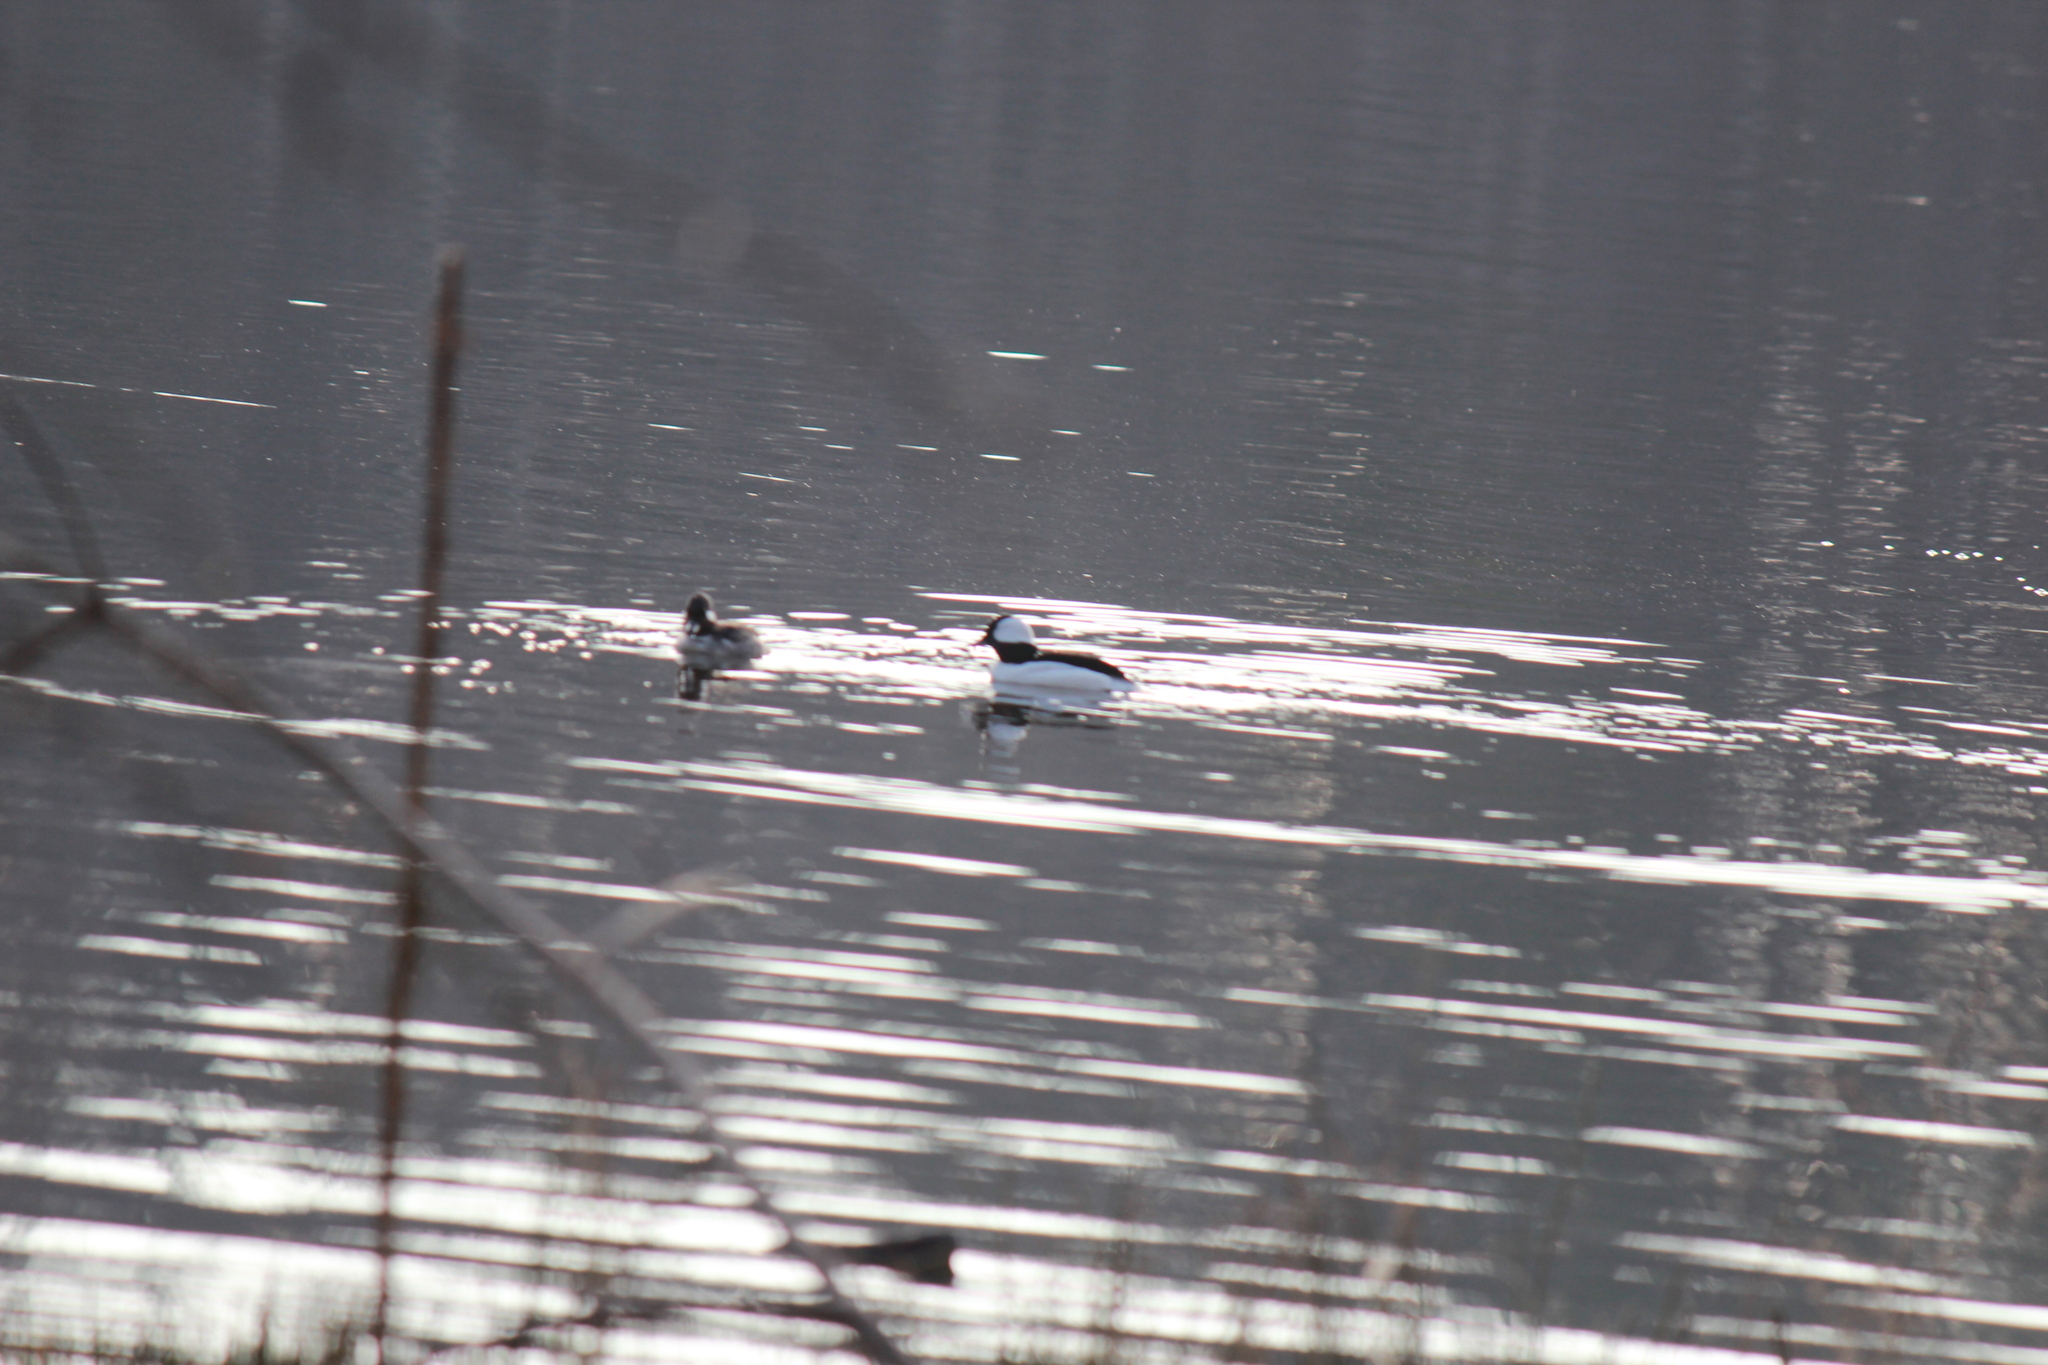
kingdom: Animalia
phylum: Chordata
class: Aves
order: Anseriformes
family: Anatidae
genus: Bucephala
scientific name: Bucephala albeola
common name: Bufflehead
